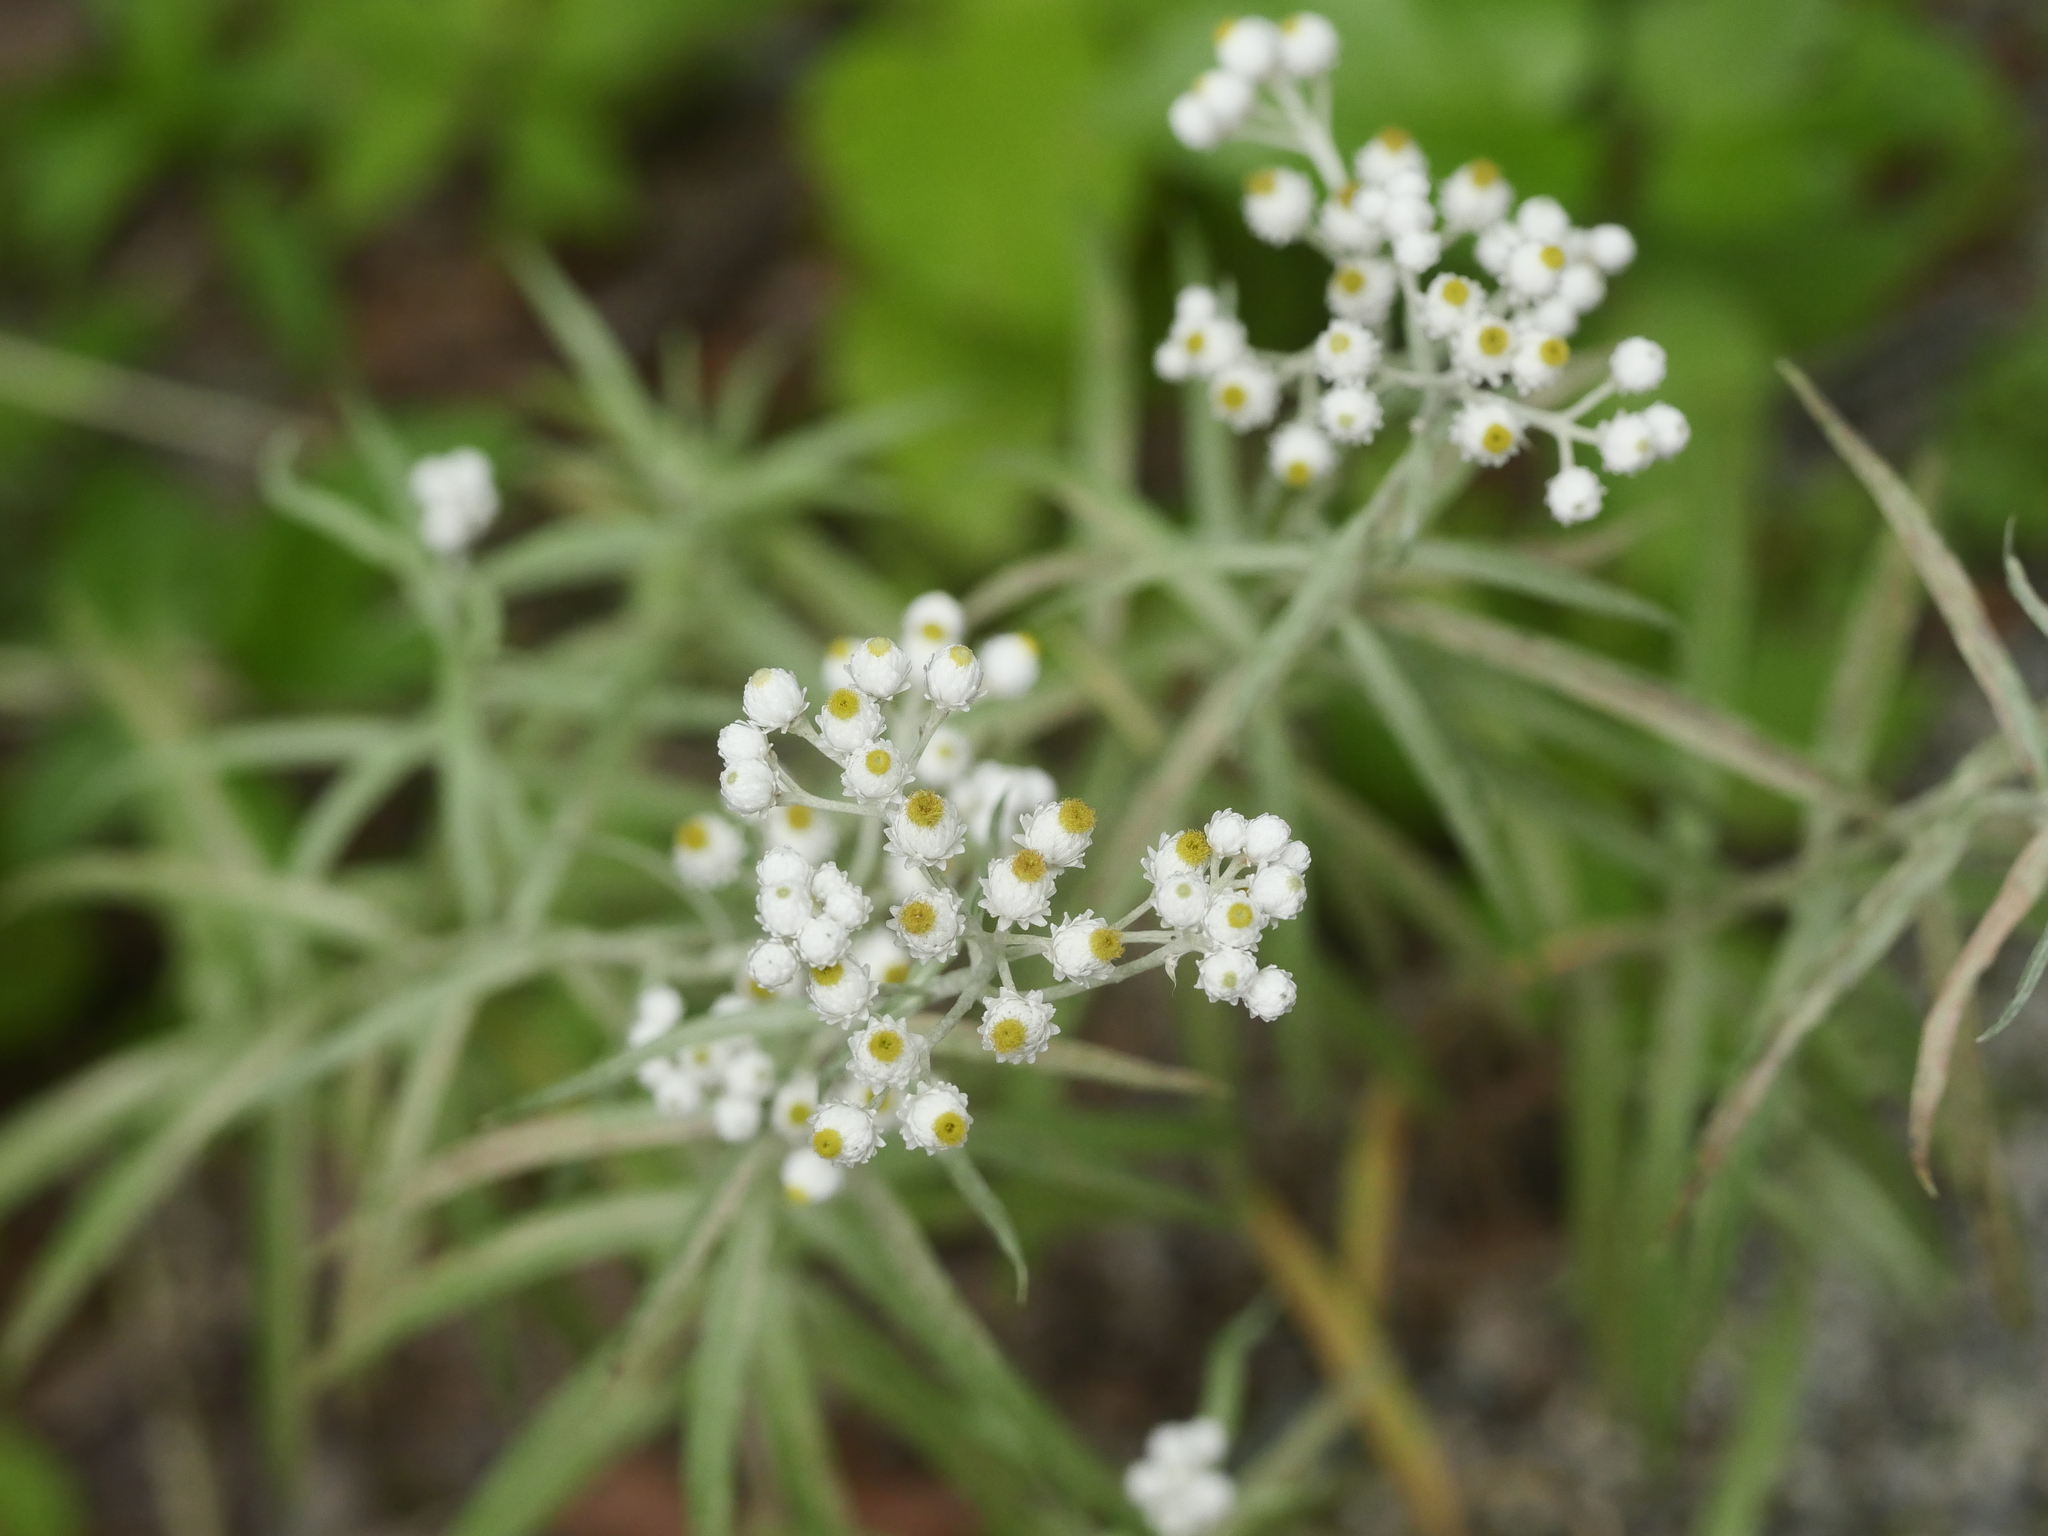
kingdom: Plantae
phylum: Tracheophyta
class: Magnoliopsida
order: Asterales
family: Asteraceae
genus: Anaphalis
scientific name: Anaphalis margaritacea
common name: Pearly everlasting
